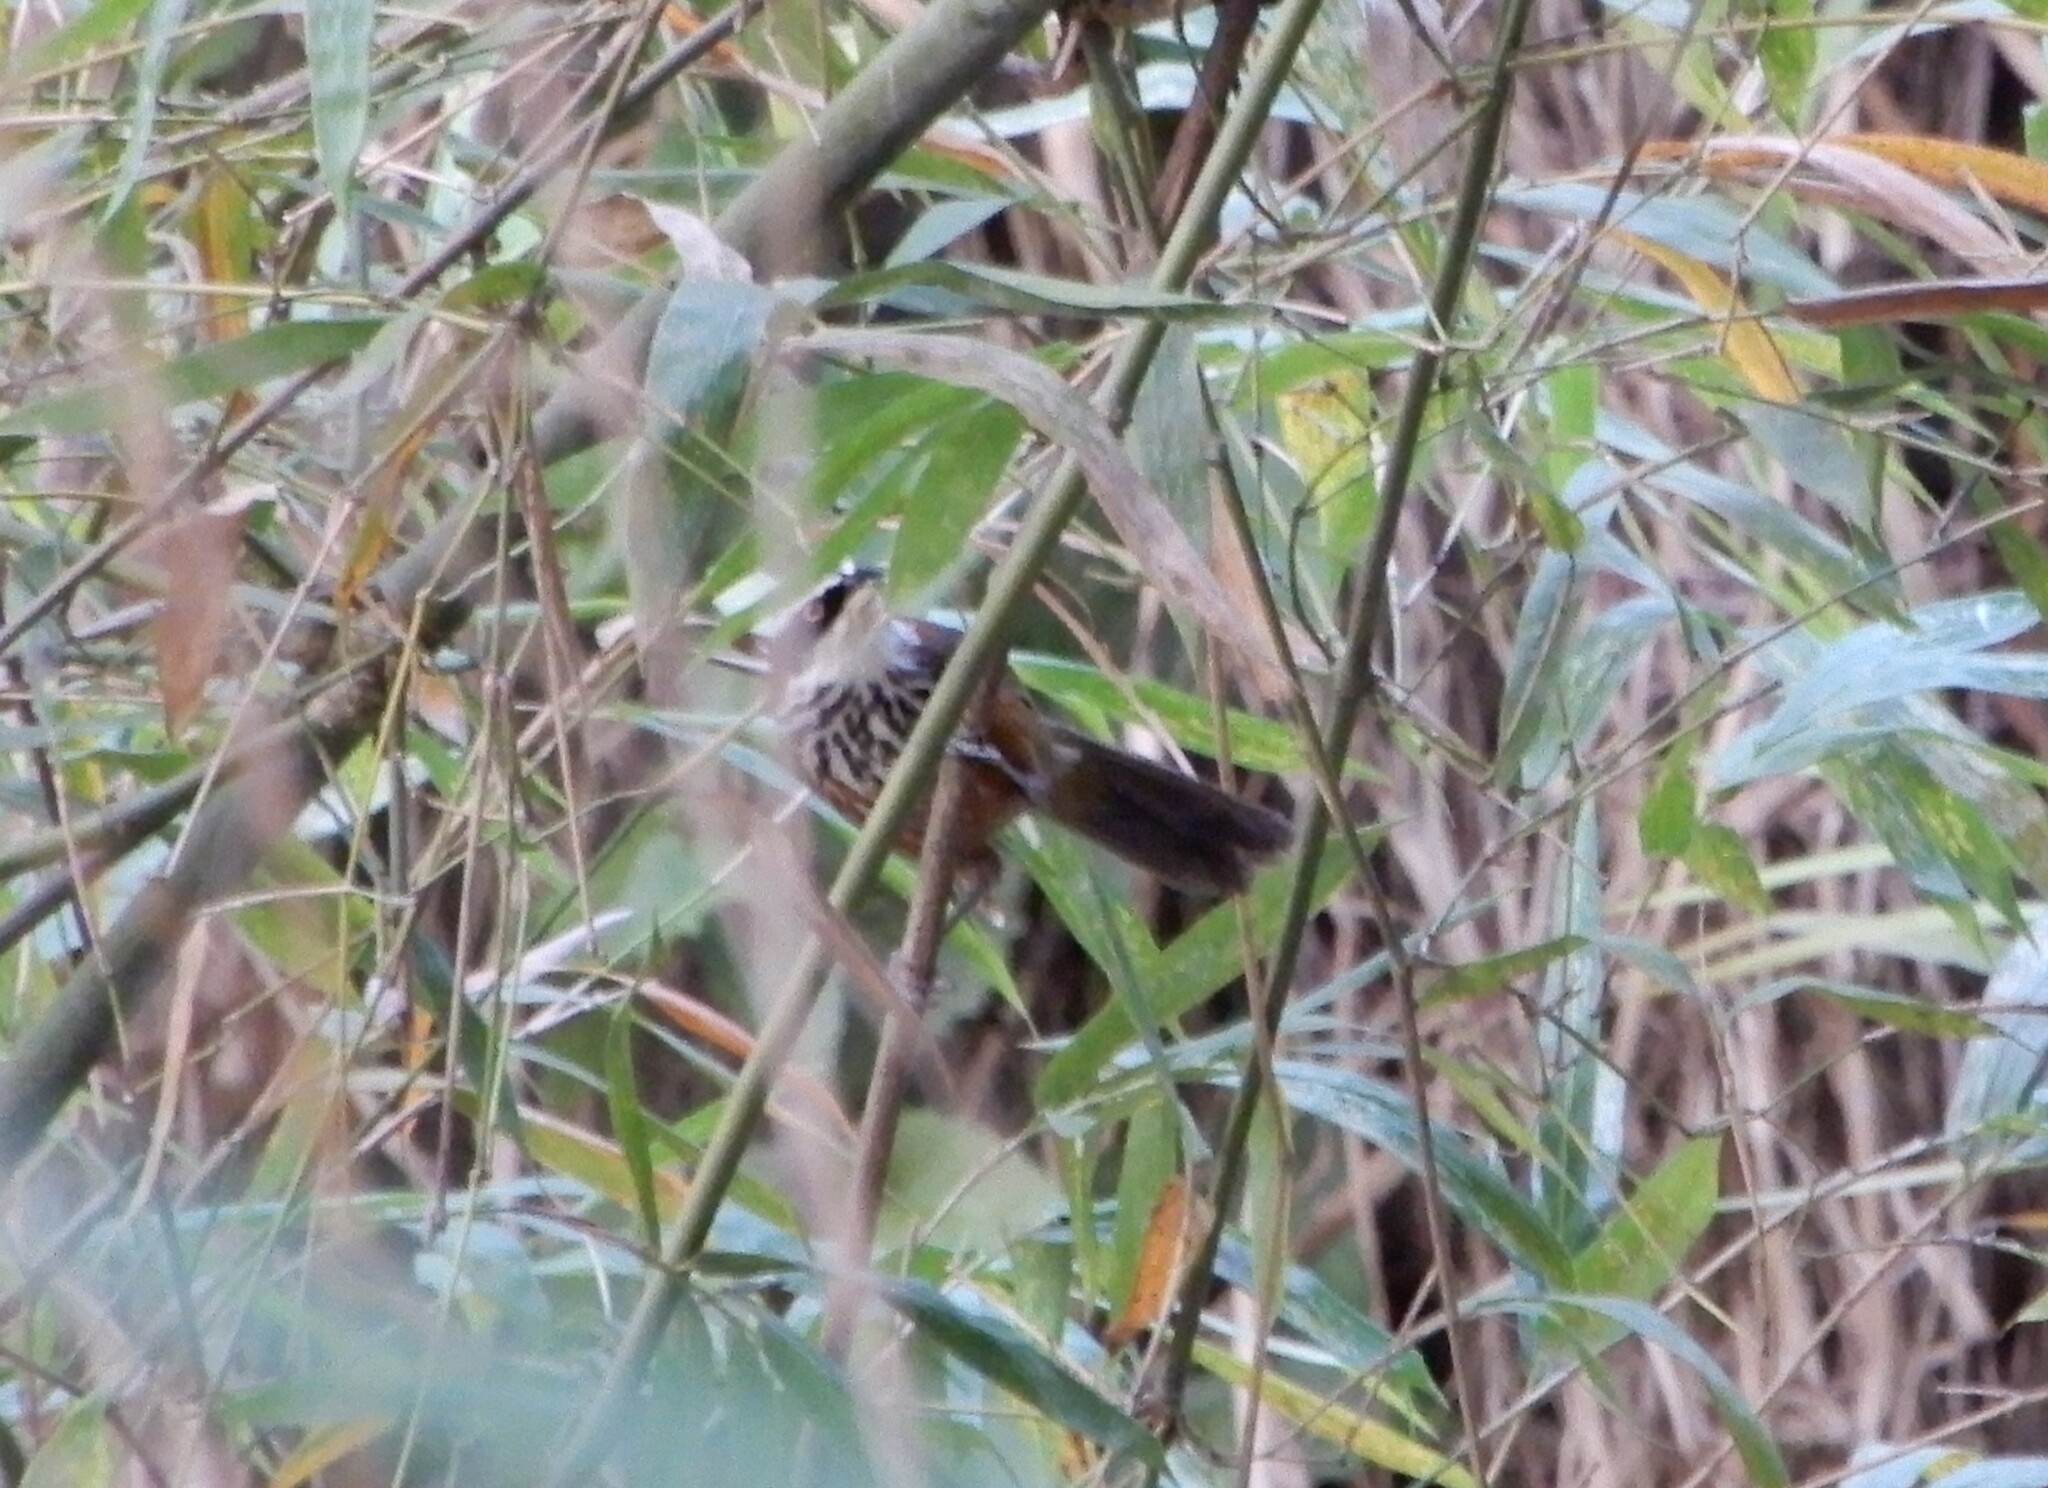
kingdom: Animalia
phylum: Chordata
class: Aves
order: Passeriformes
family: Timaliidae
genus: Pomatorhinus
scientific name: Pomatorhinus musicus
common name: Taiwan scimitar-babbler
